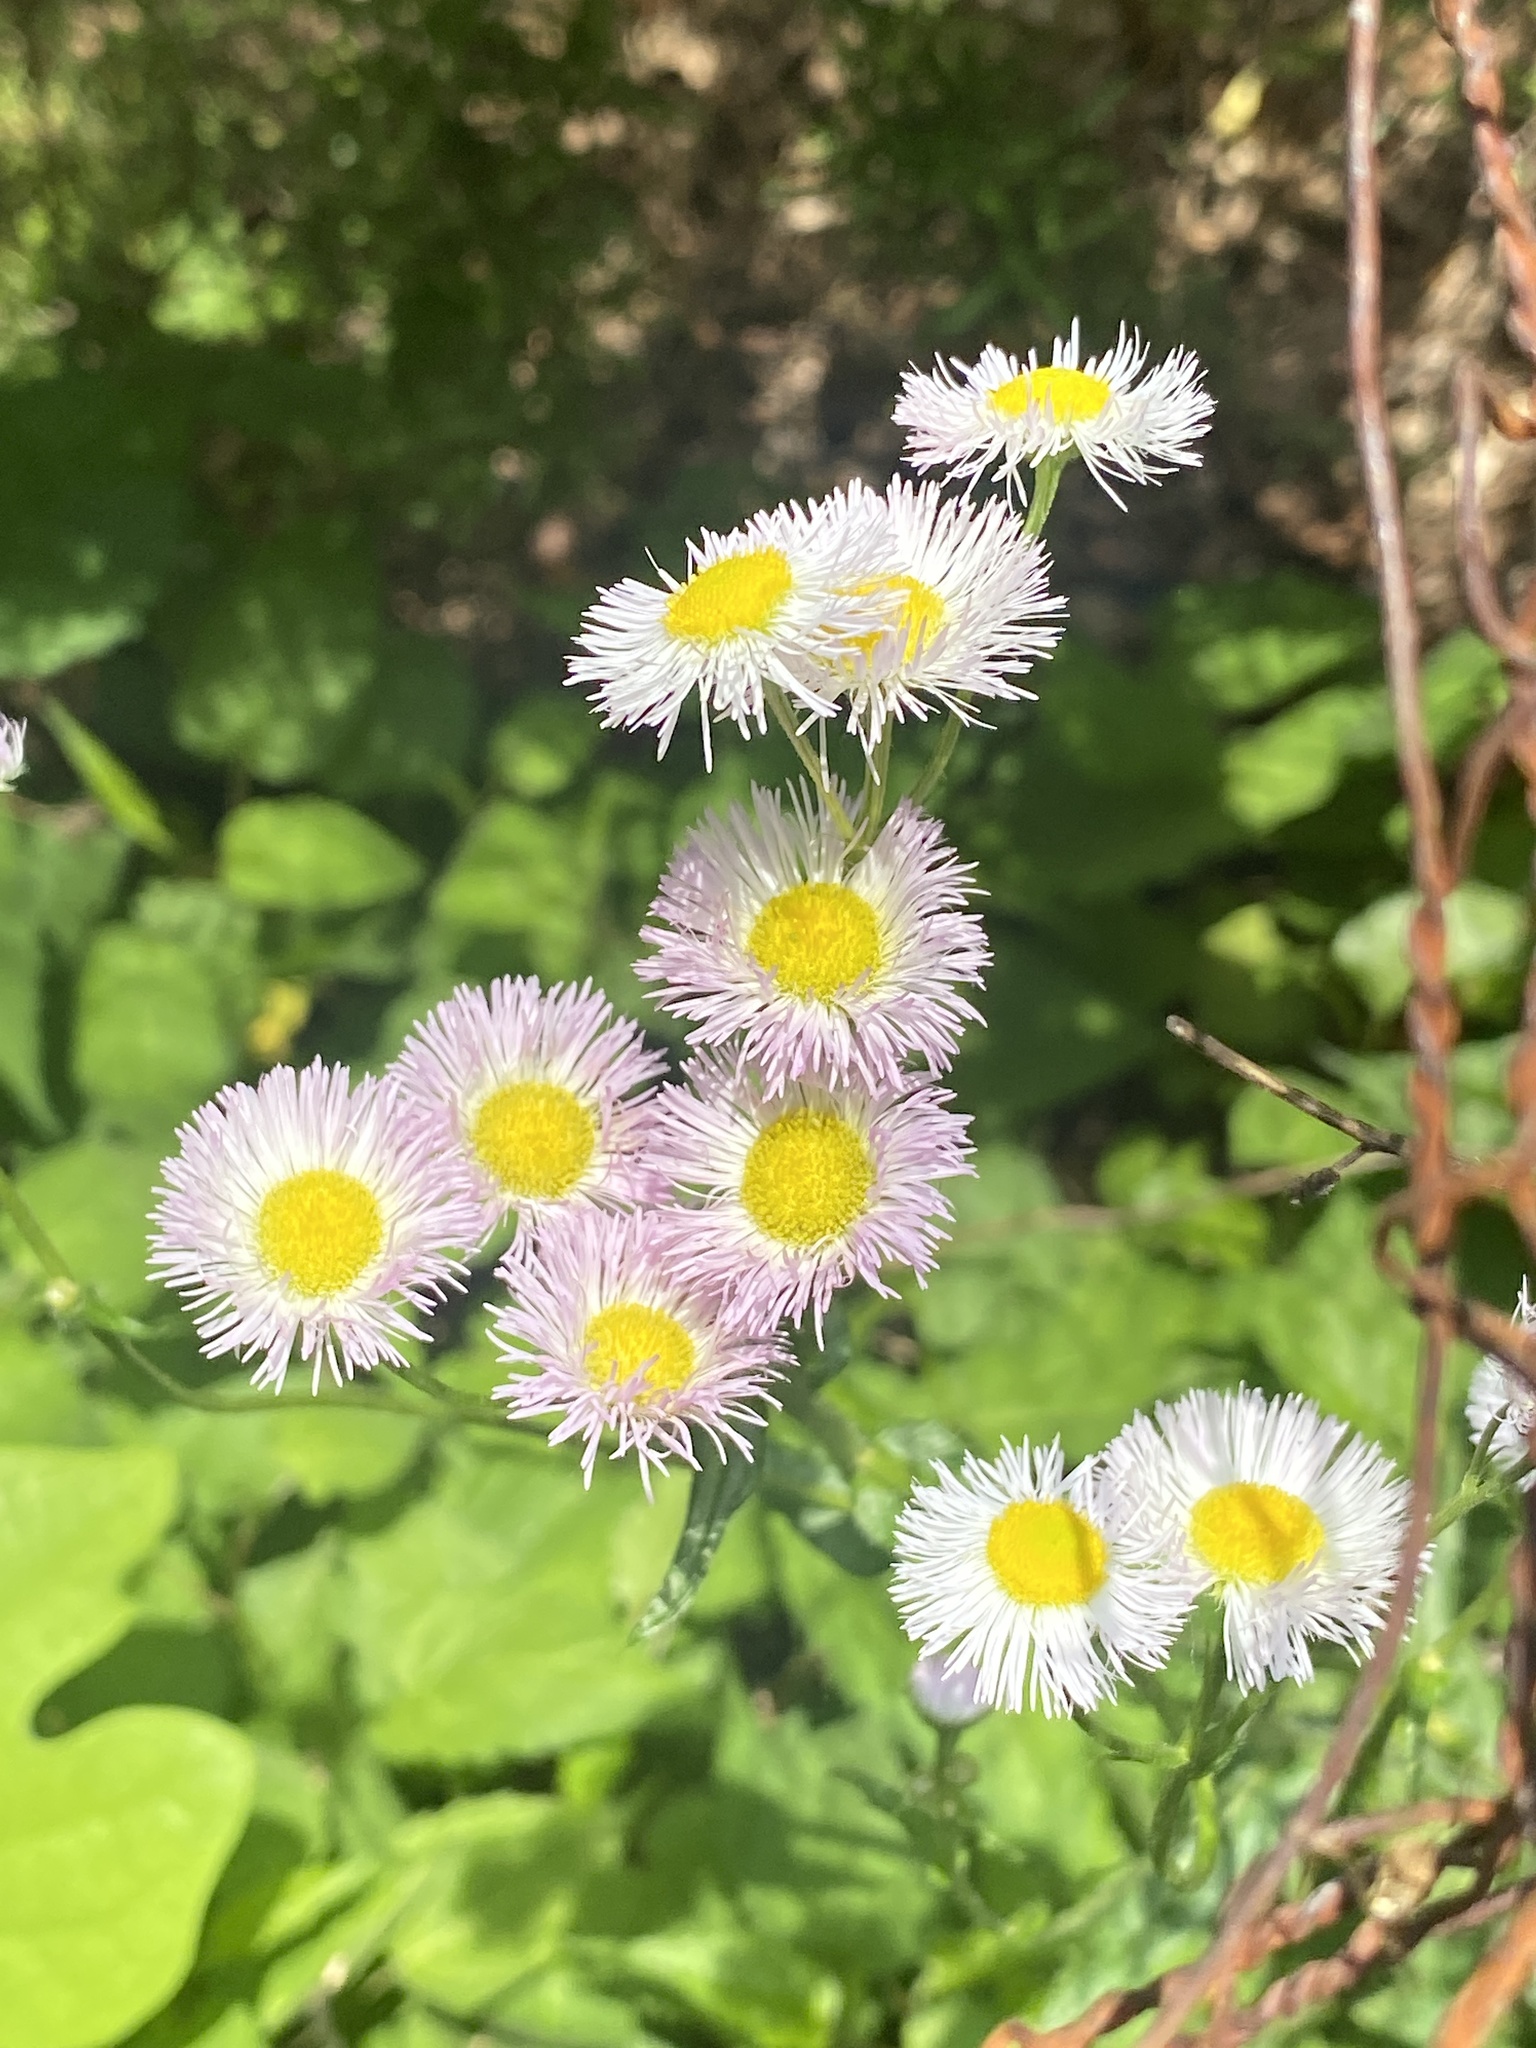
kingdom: Plantae
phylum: Tracheophyta
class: Magnoliopsida
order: Asterales
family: Asteraceae
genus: Erigeron
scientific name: Erigeron philadelphicus
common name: Robin's-plantain
